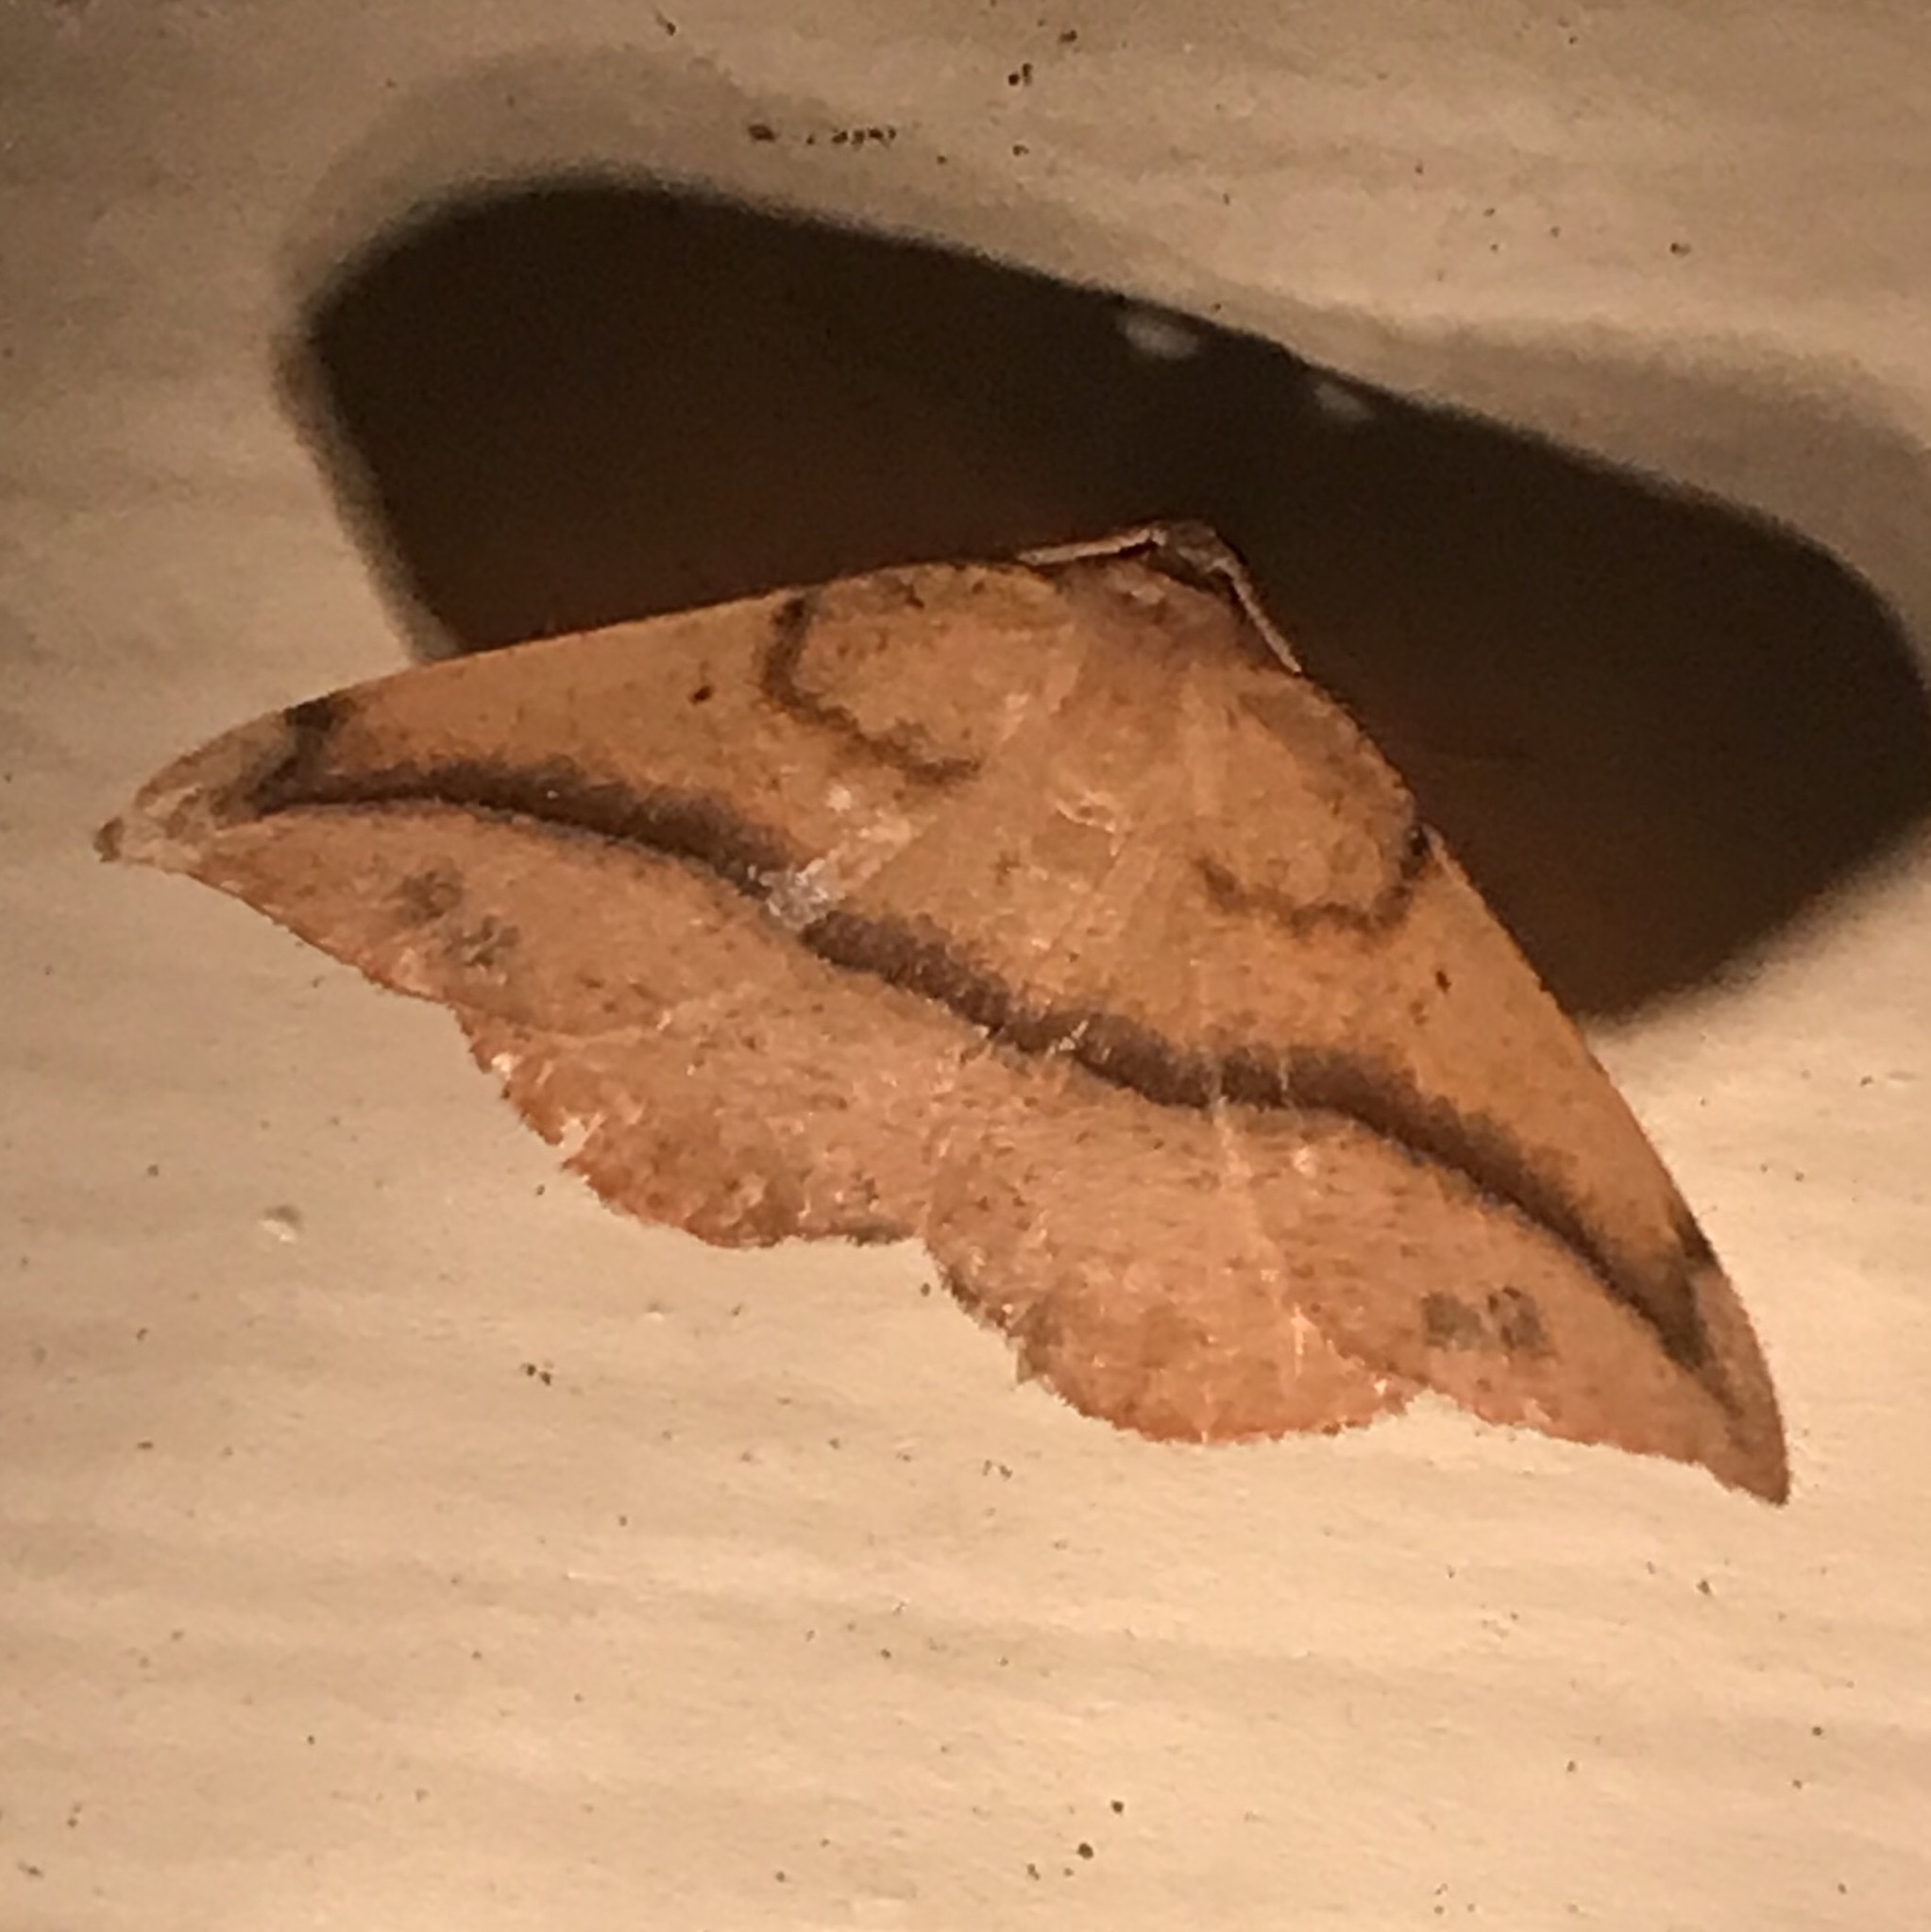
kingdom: Animalia
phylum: Arthropoda
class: Insecta
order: Lepidoptera
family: Geometridae
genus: Patalene
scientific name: Patalene olyzonaria
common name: Juniper geometer moth
